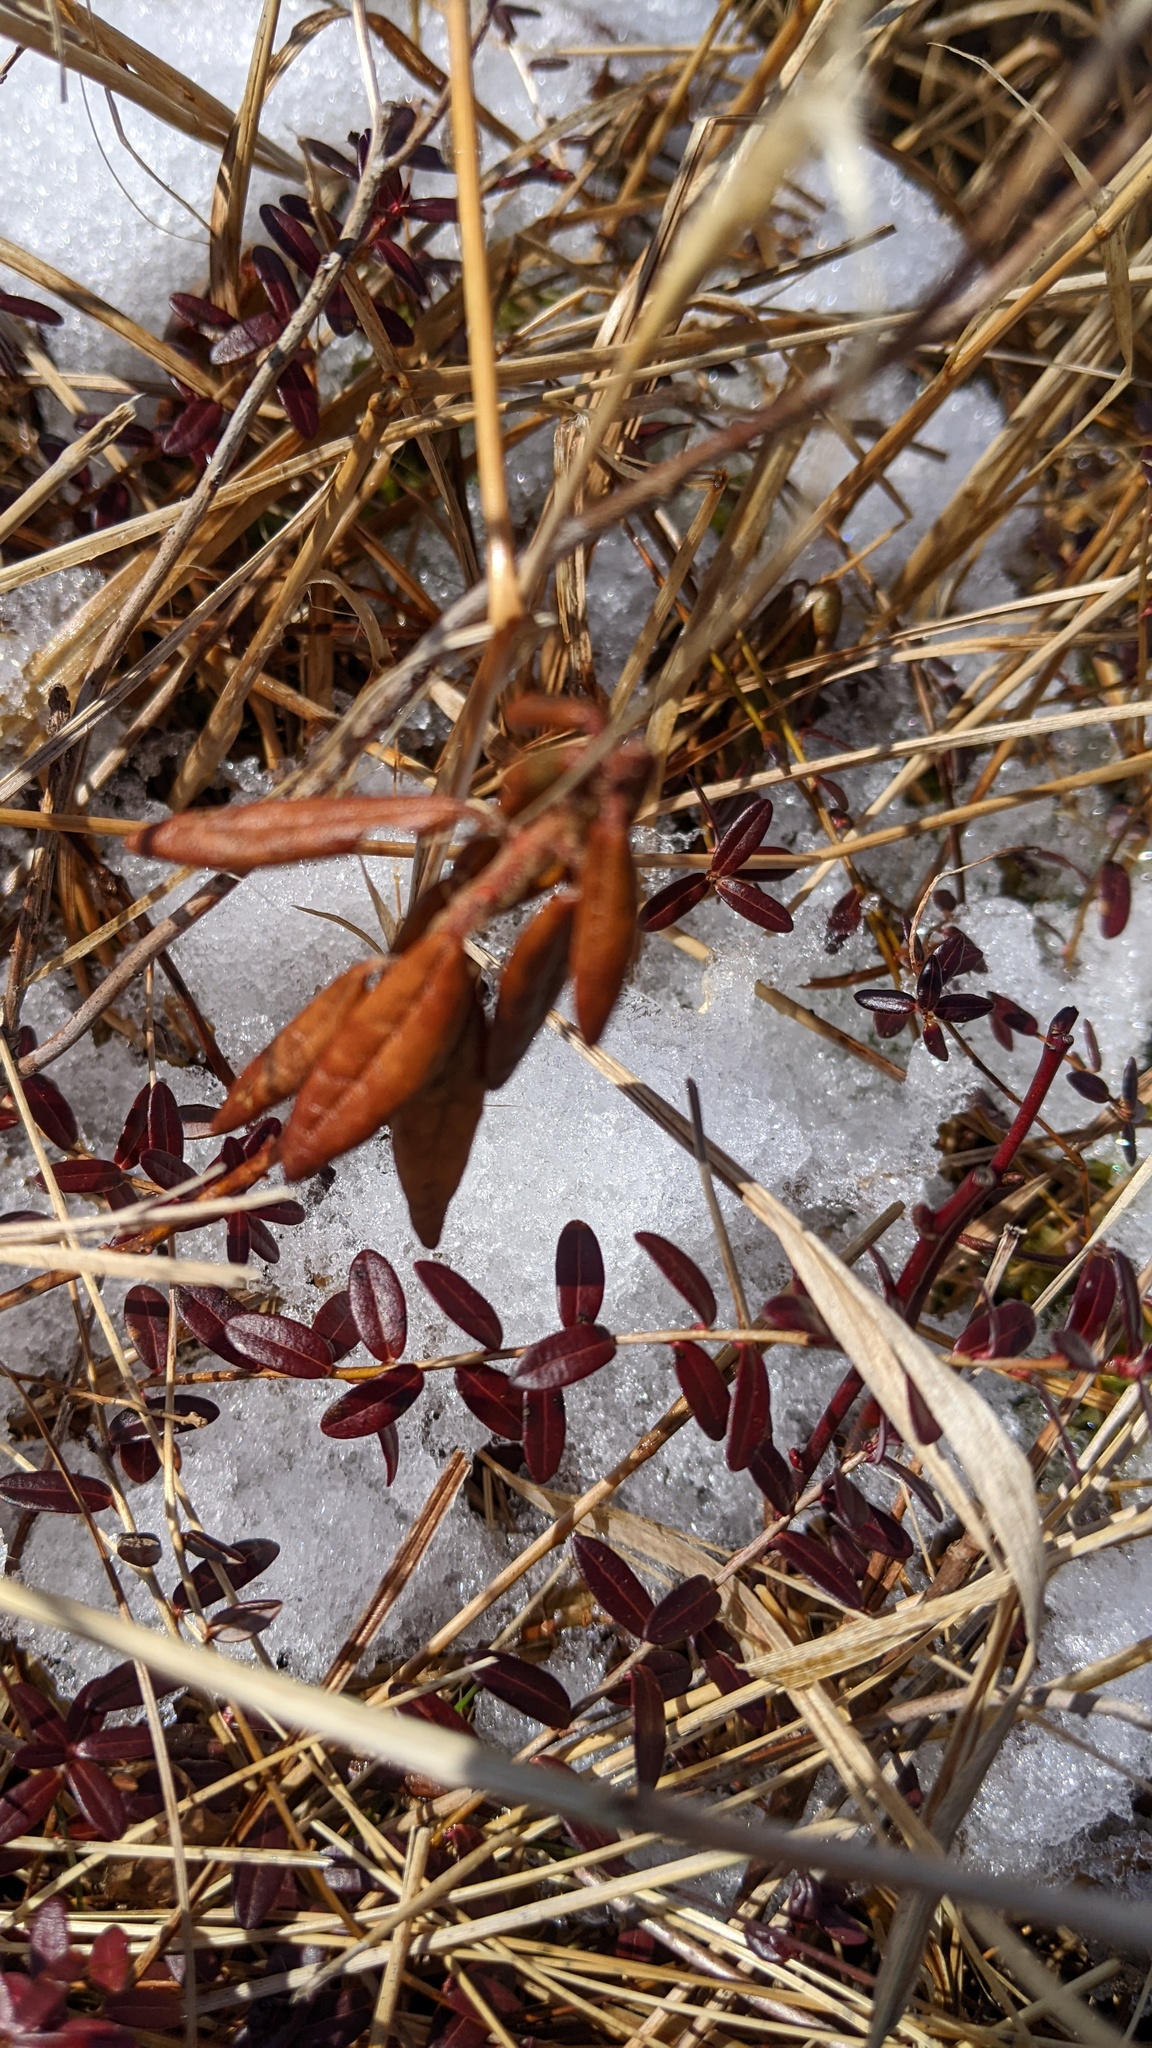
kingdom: Plantae
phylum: Tracheophyta
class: Magnoliopsida
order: Ericales
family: Ericaceae
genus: Vaccinium
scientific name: Vaccinium macrocarpon
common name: American cranberry
